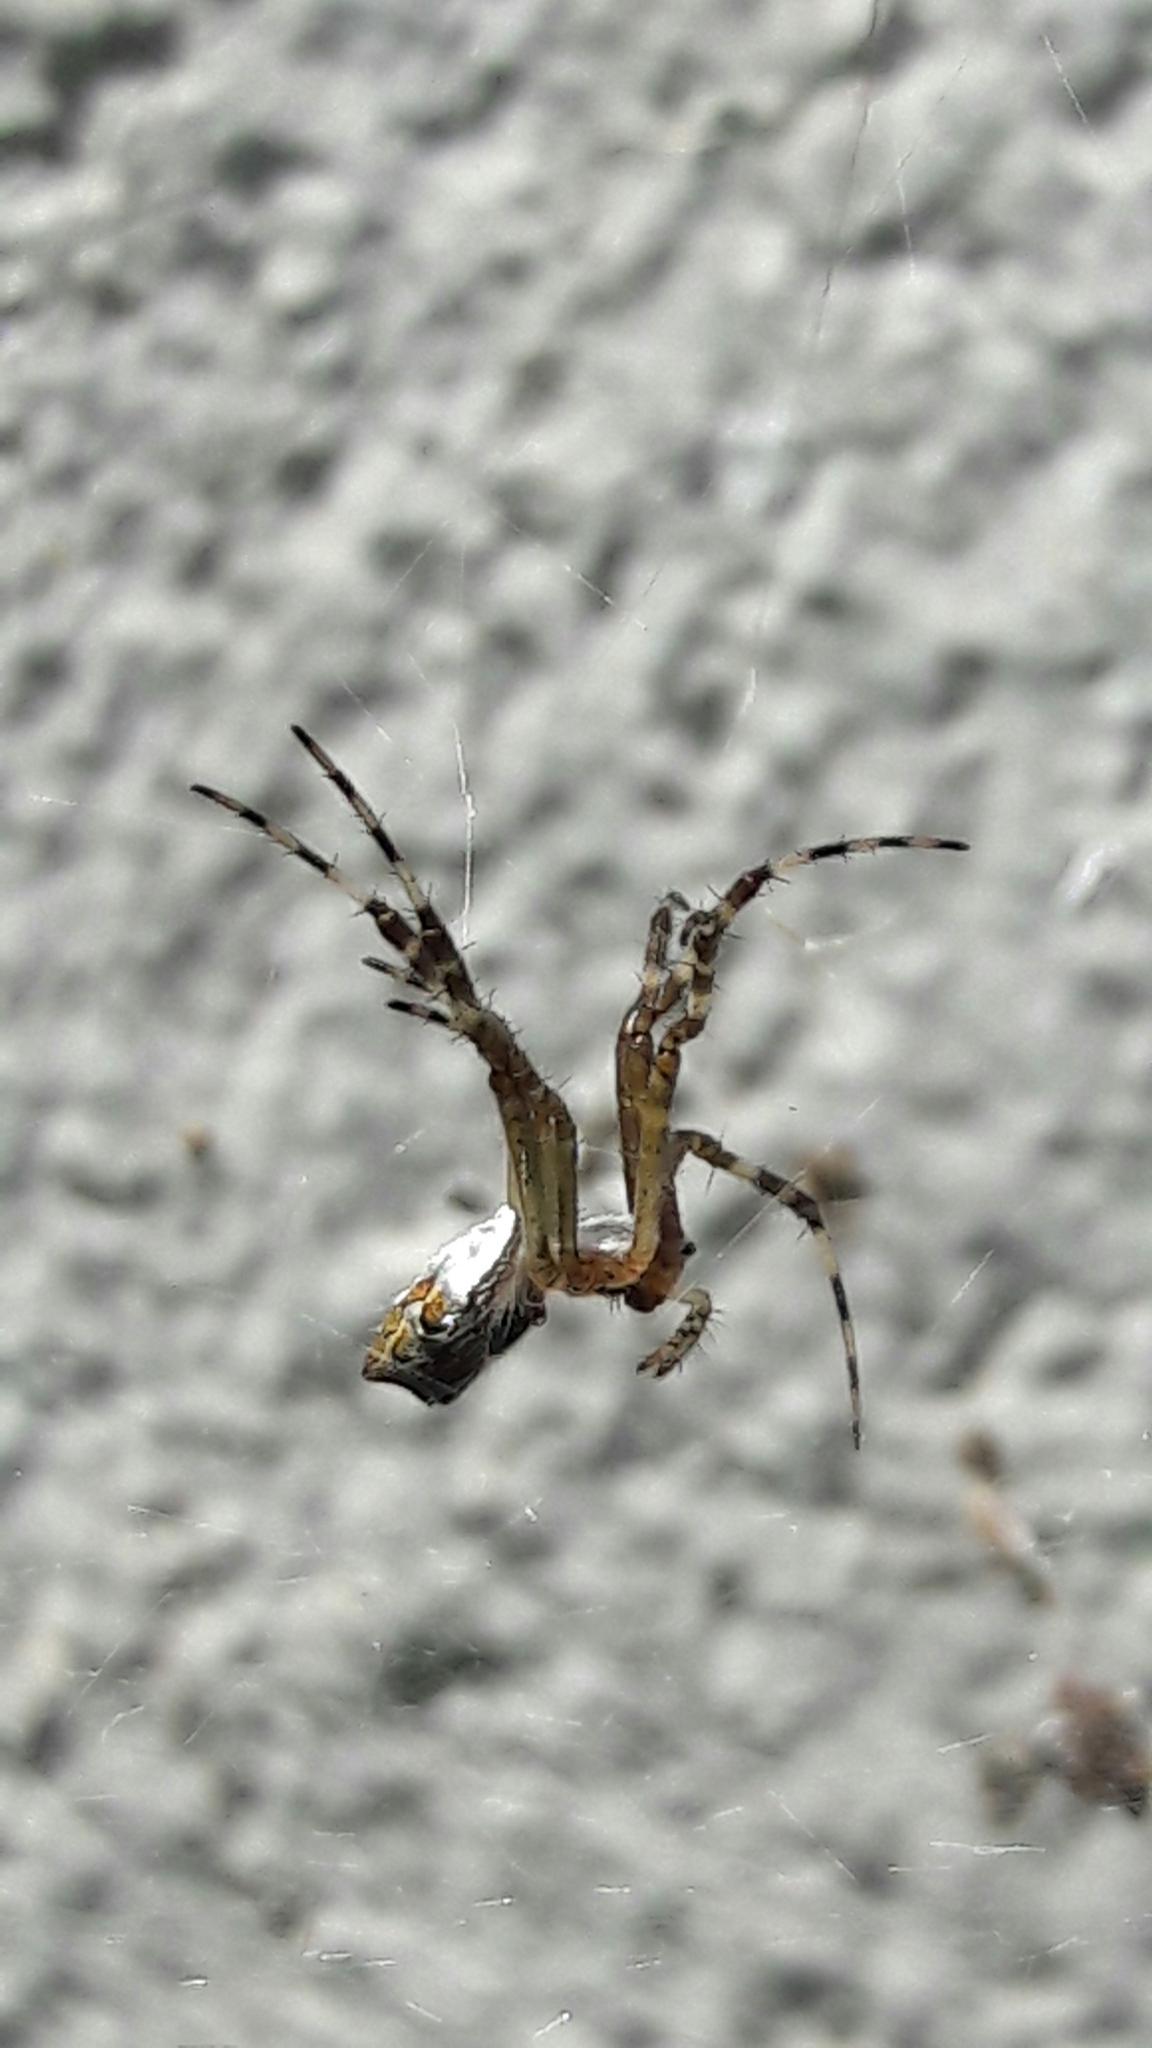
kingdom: Animalia
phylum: Arthropoda
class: Arachnida
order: Araneae
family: Araneidae
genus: Argiope
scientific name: Argiope argentata
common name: Orb weavers
